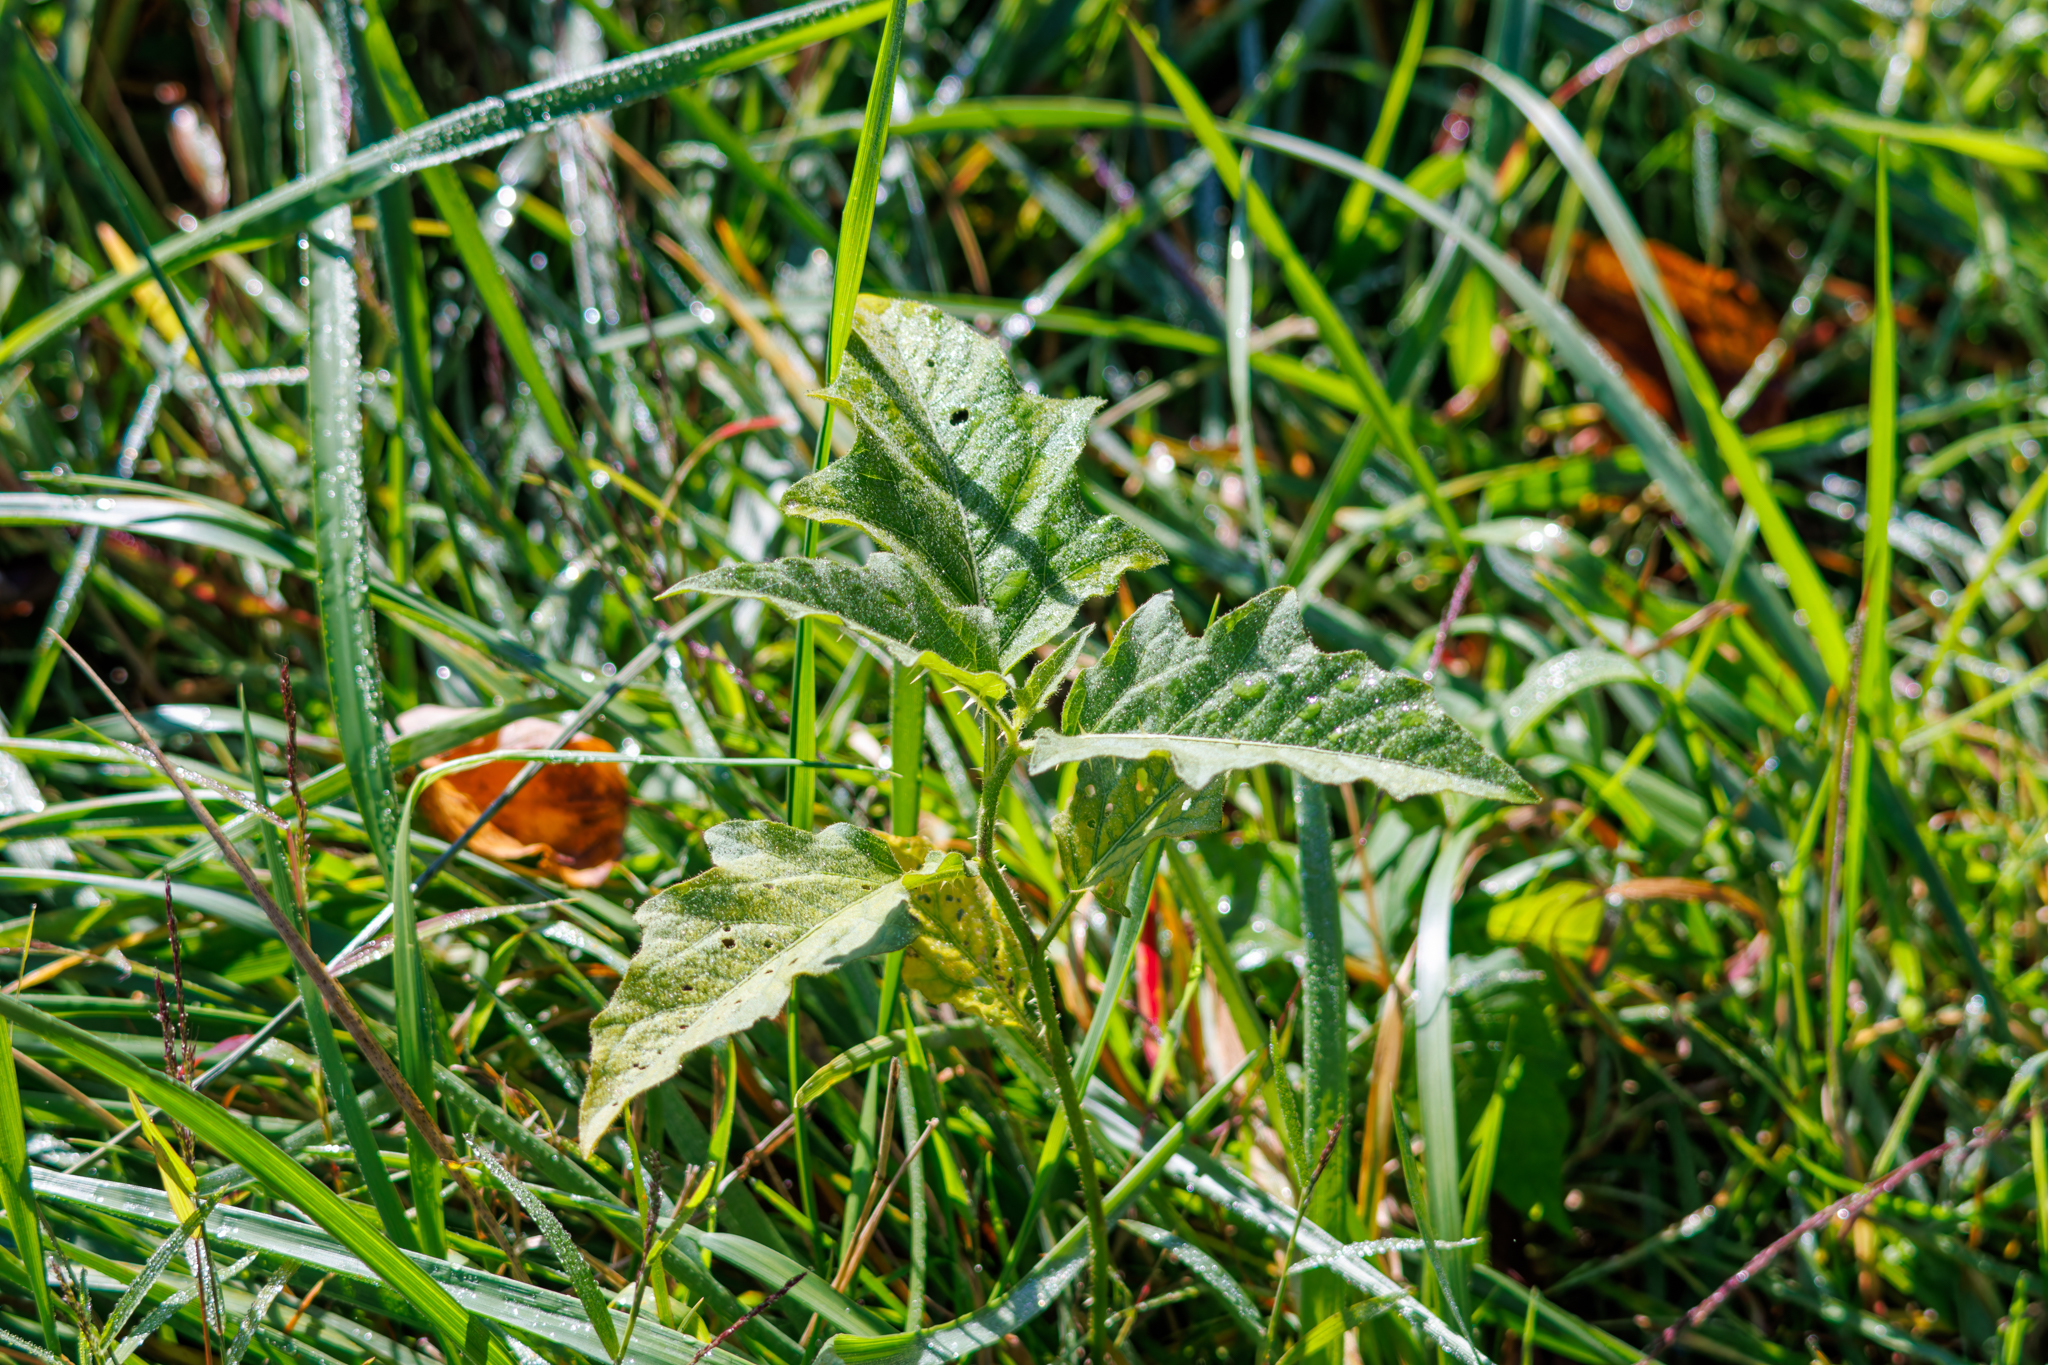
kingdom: Plantae
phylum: Tracheophyta
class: Magnoliopsida
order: Solanales
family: Solanaceae
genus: Solanum
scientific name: Solanum carolinense
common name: Horse-nettle
